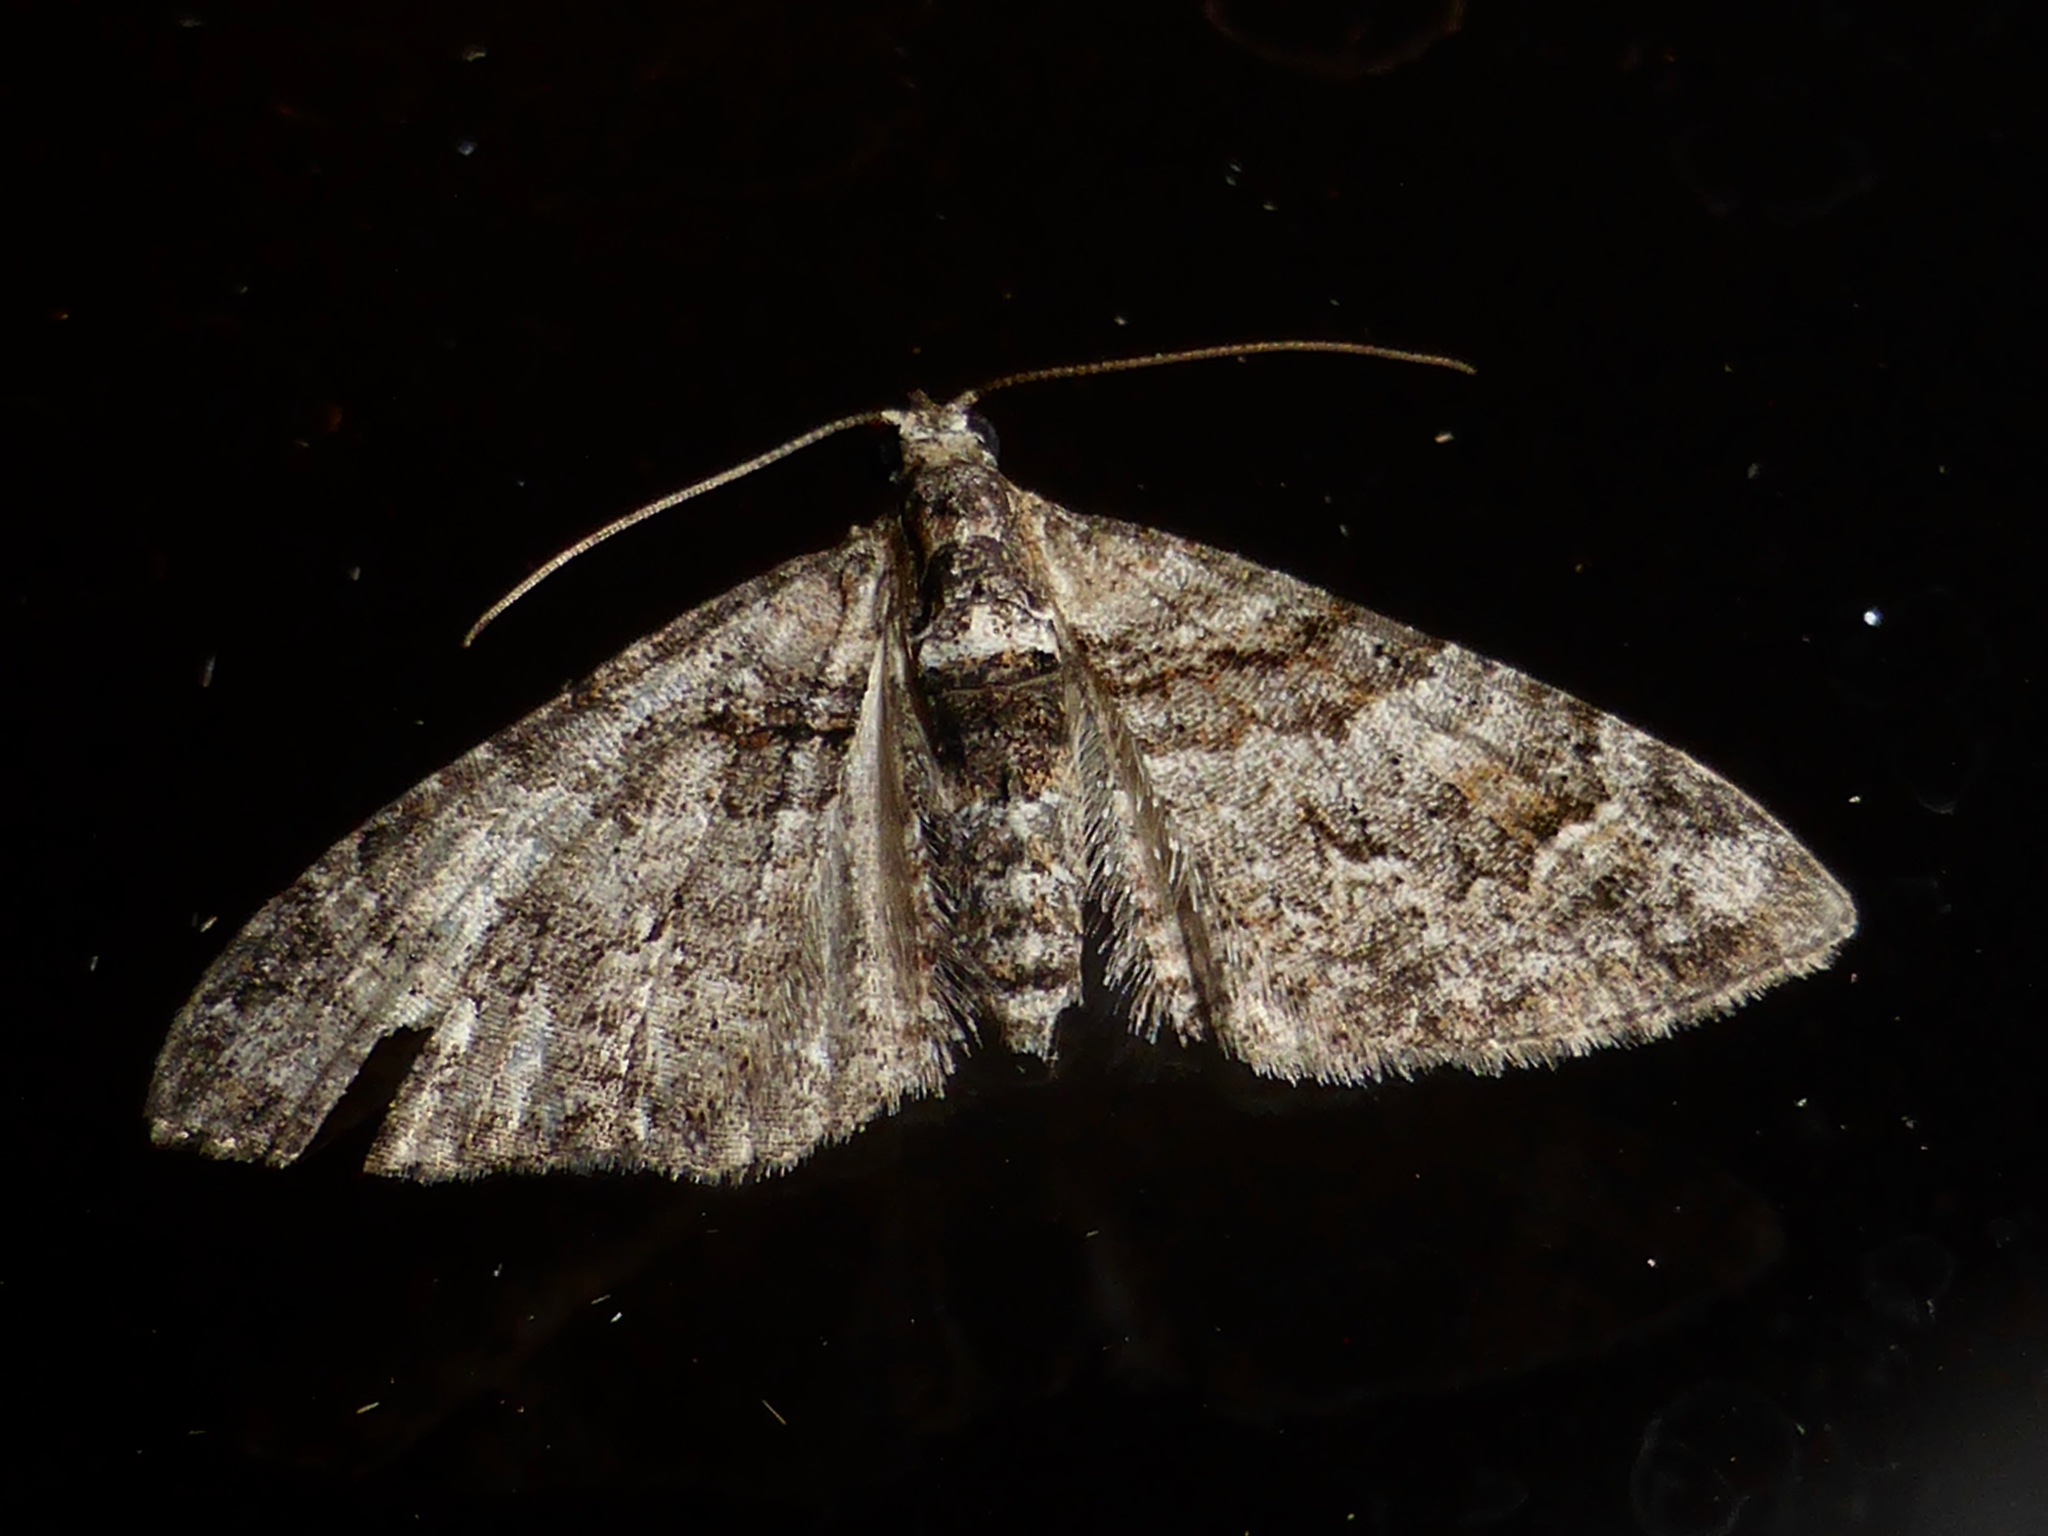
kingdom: Animalia
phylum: Arthropoda
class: Insecta
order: Lepidoptera
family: Geometridae
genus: Phrissogonus
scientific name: Phrissogonus laticostata
